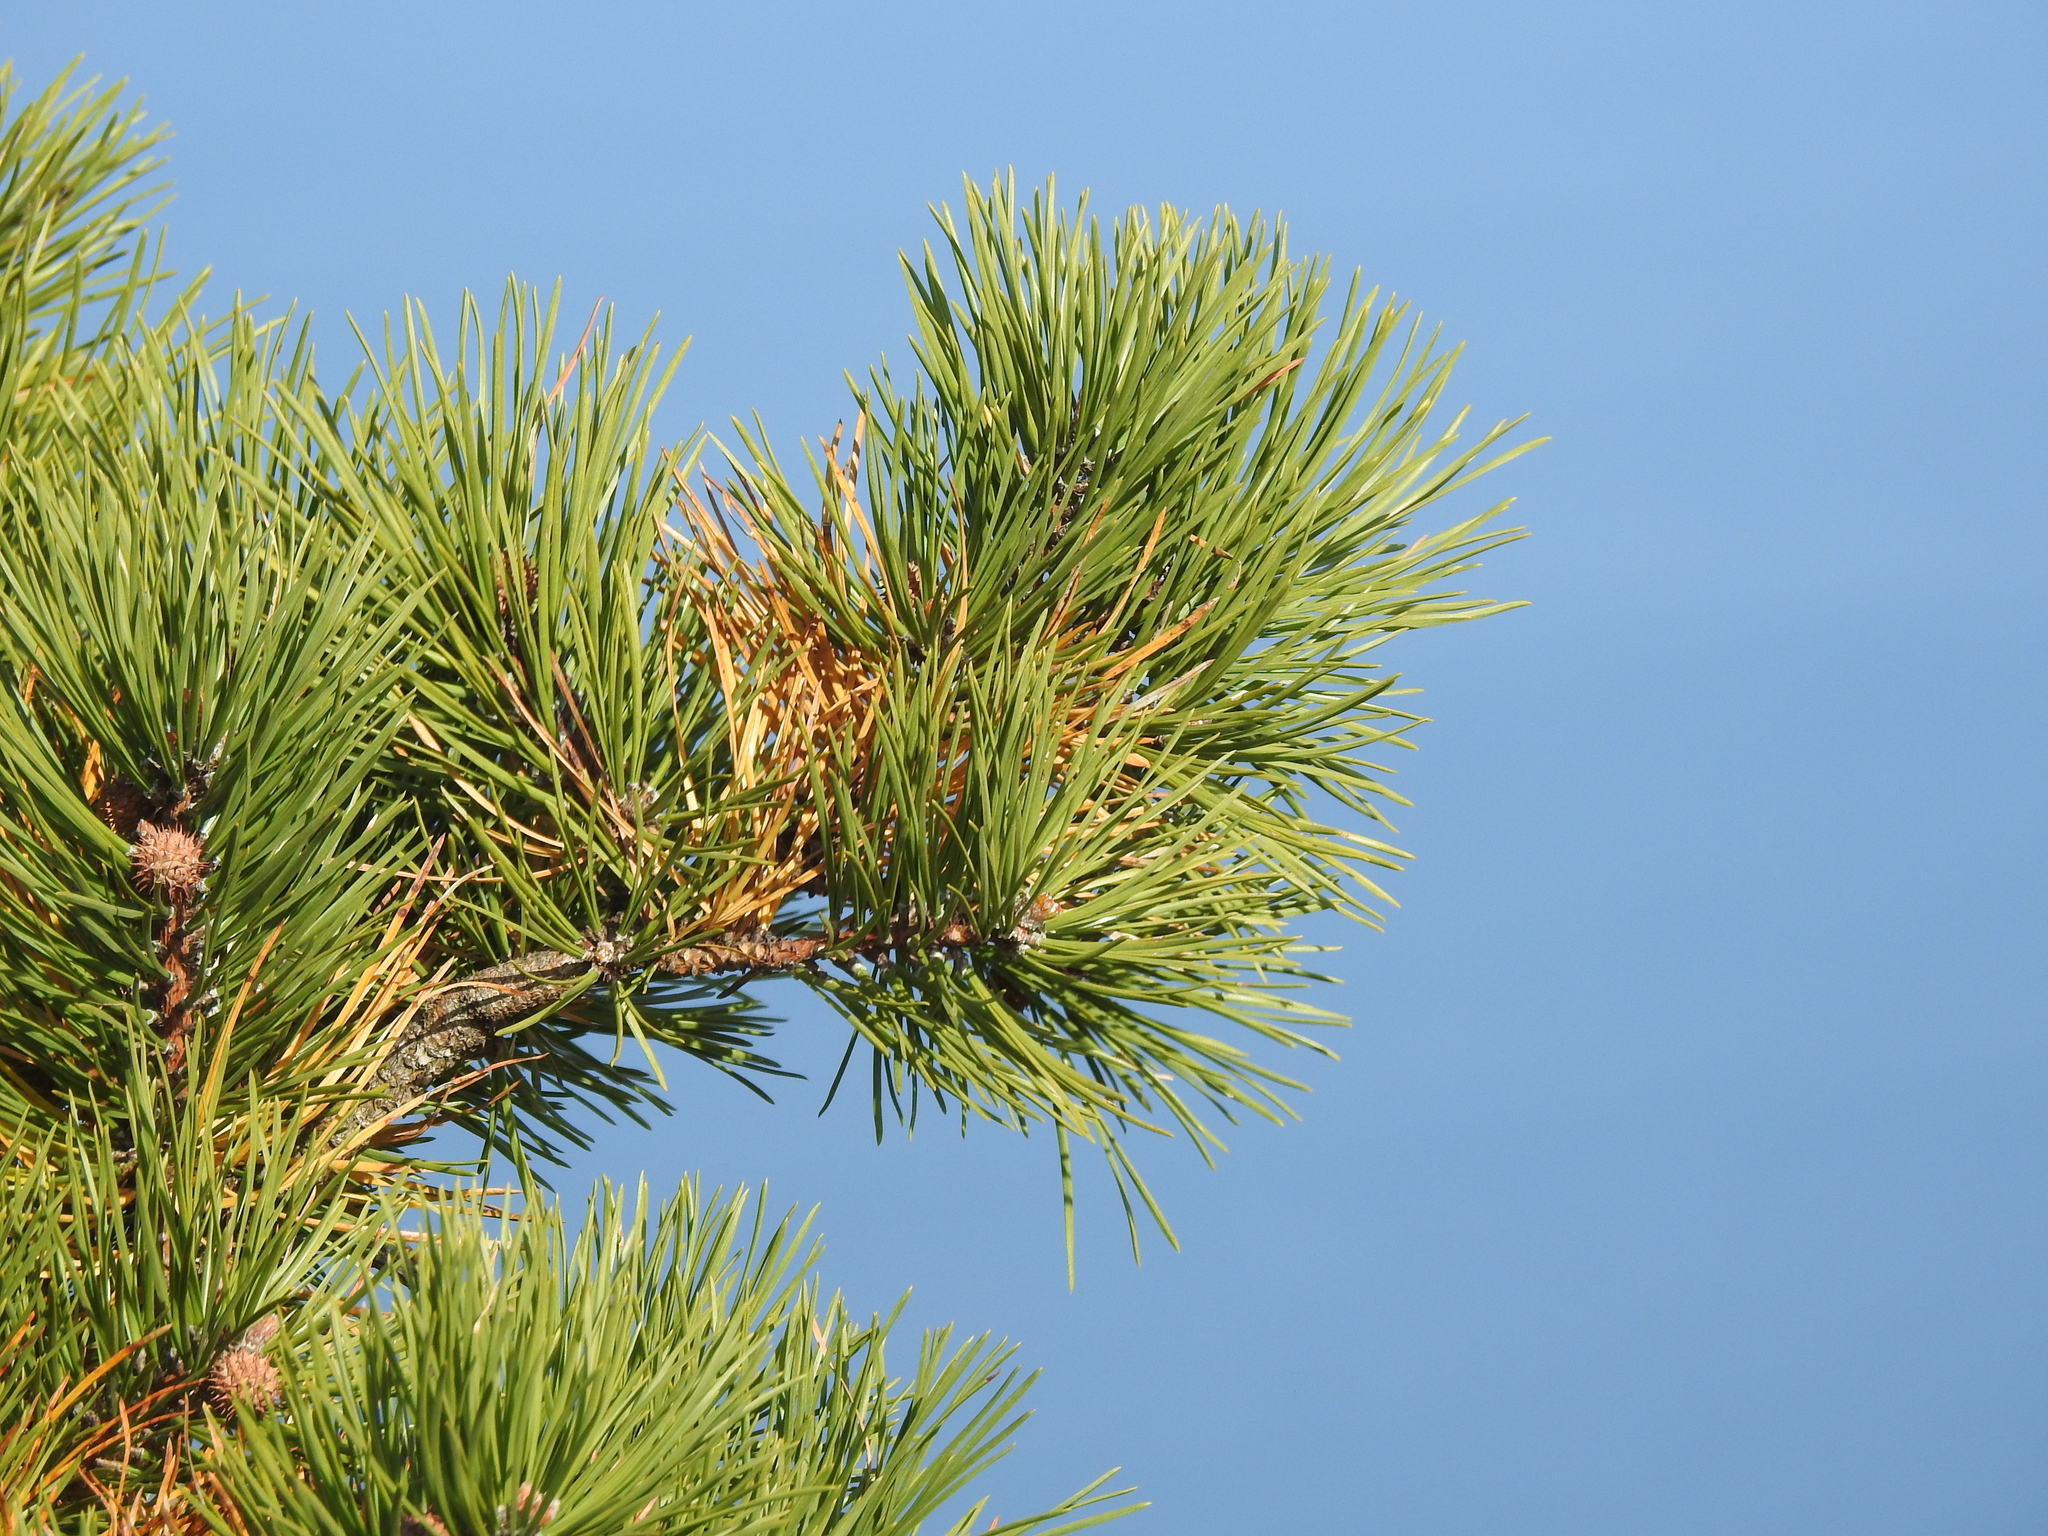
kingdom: Plantae
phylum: Tracheophyta
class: Pinopsida
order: Pinales
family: Pinaceae
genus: Pinus
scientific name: Pinus rigida
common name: Pitch pine
